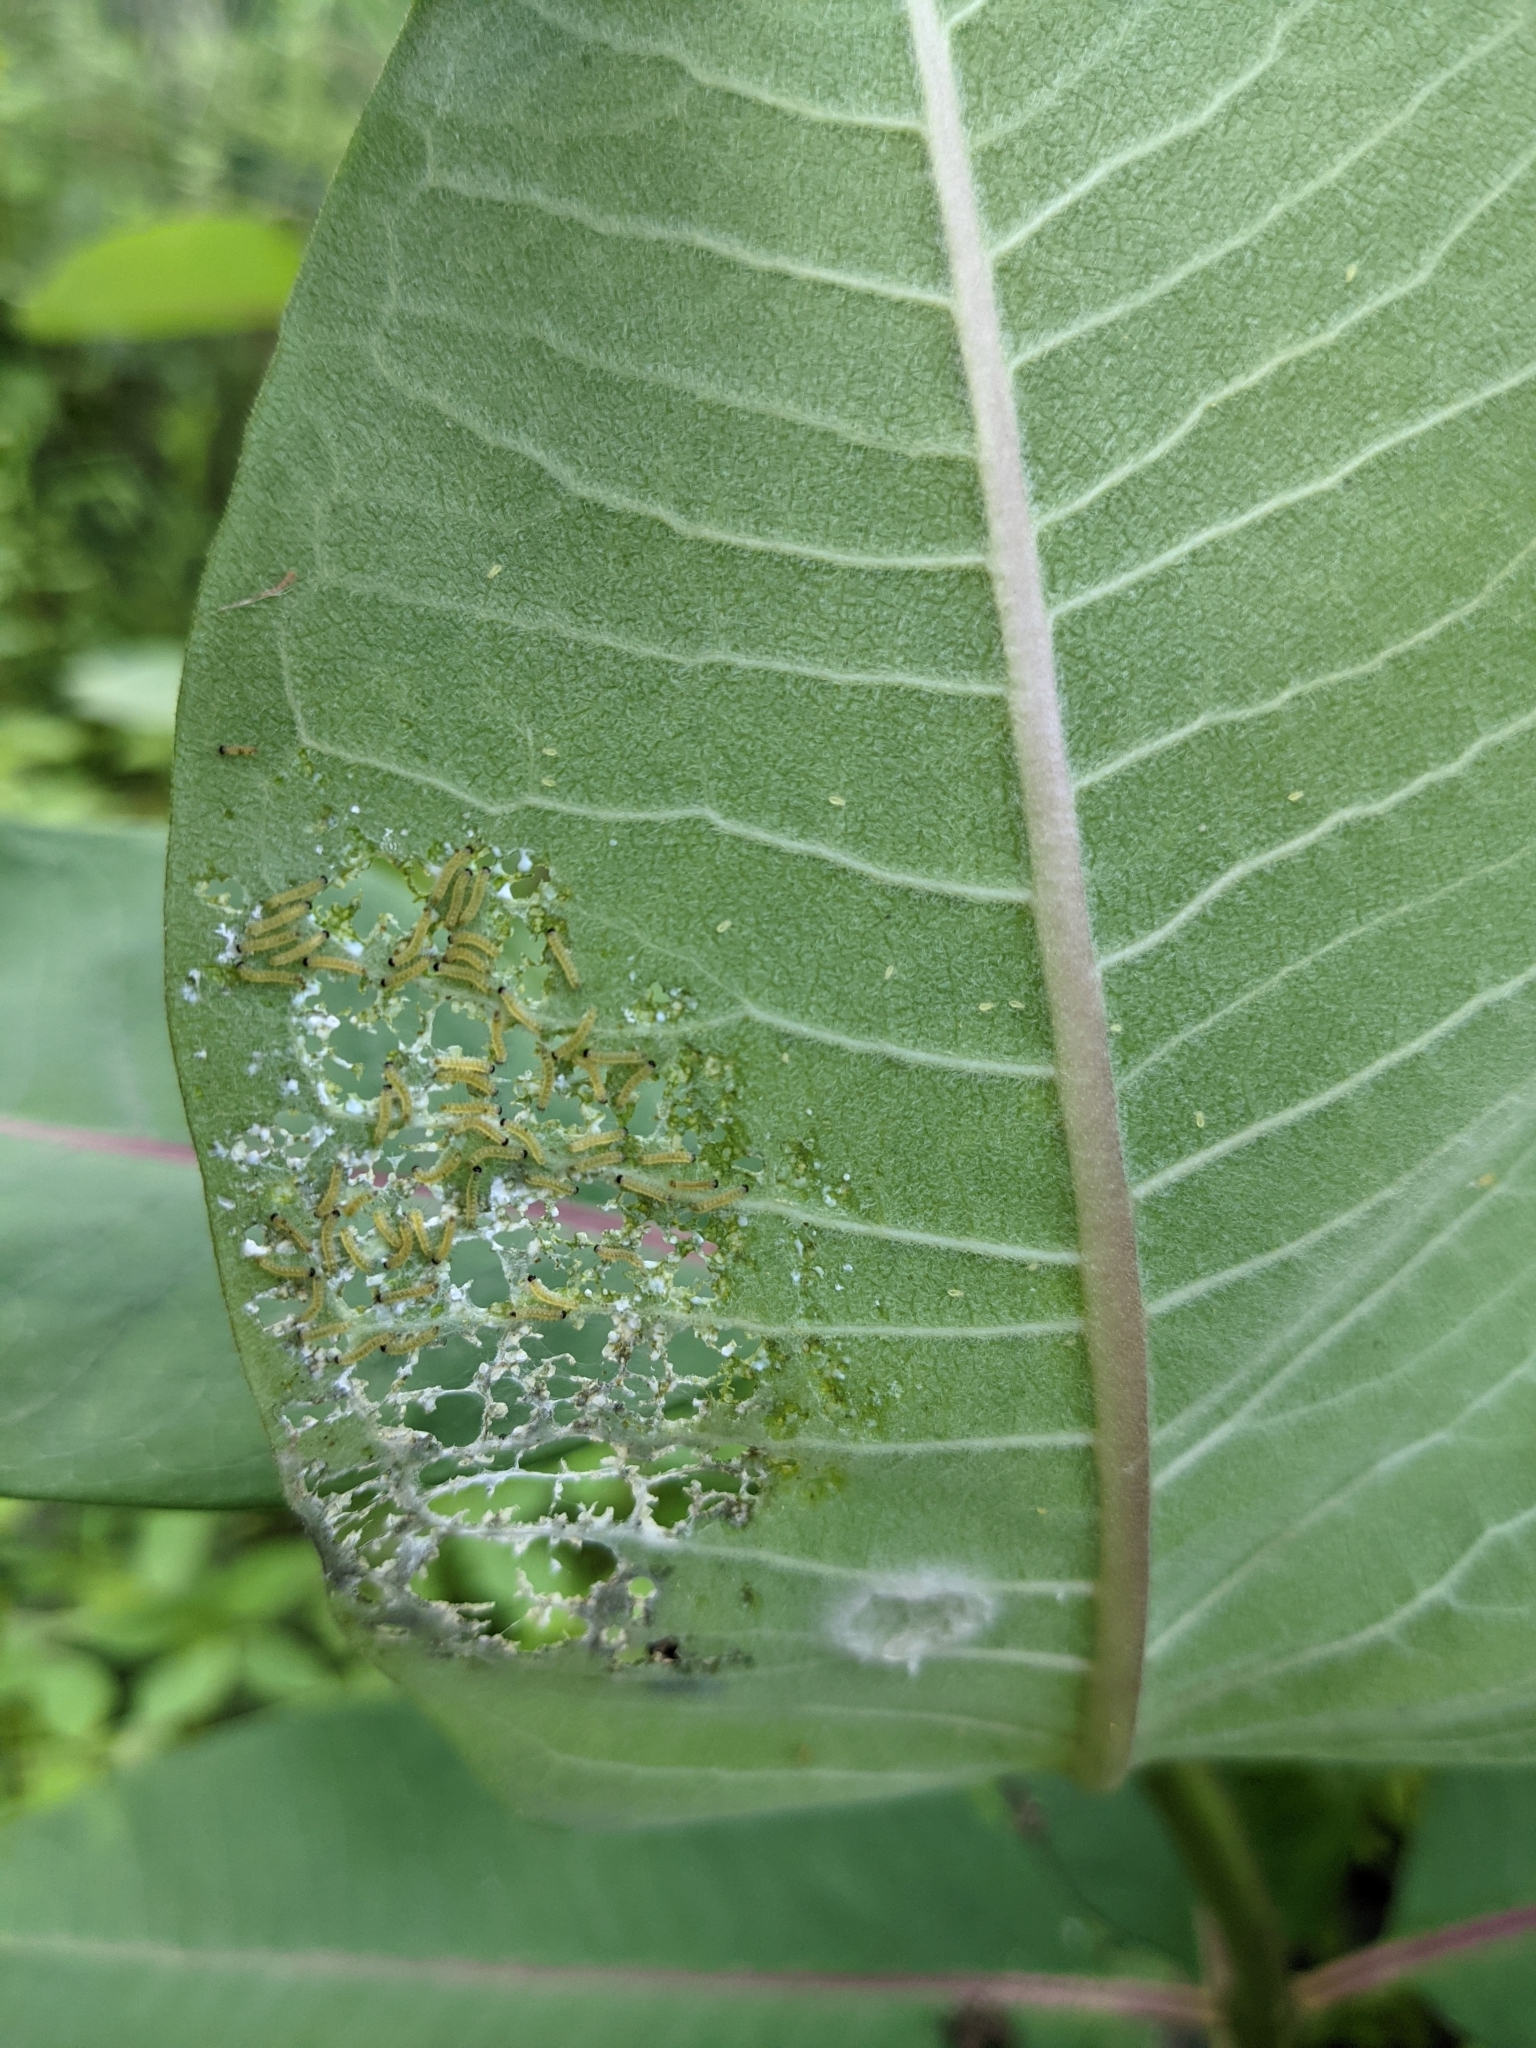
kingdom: Animalia
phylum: Arthropoda
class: Insecta
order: Lepidoptera
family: Erebidae
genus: Euchaetes
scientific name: Euchaetes egle
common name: Milkweed tussock moth
